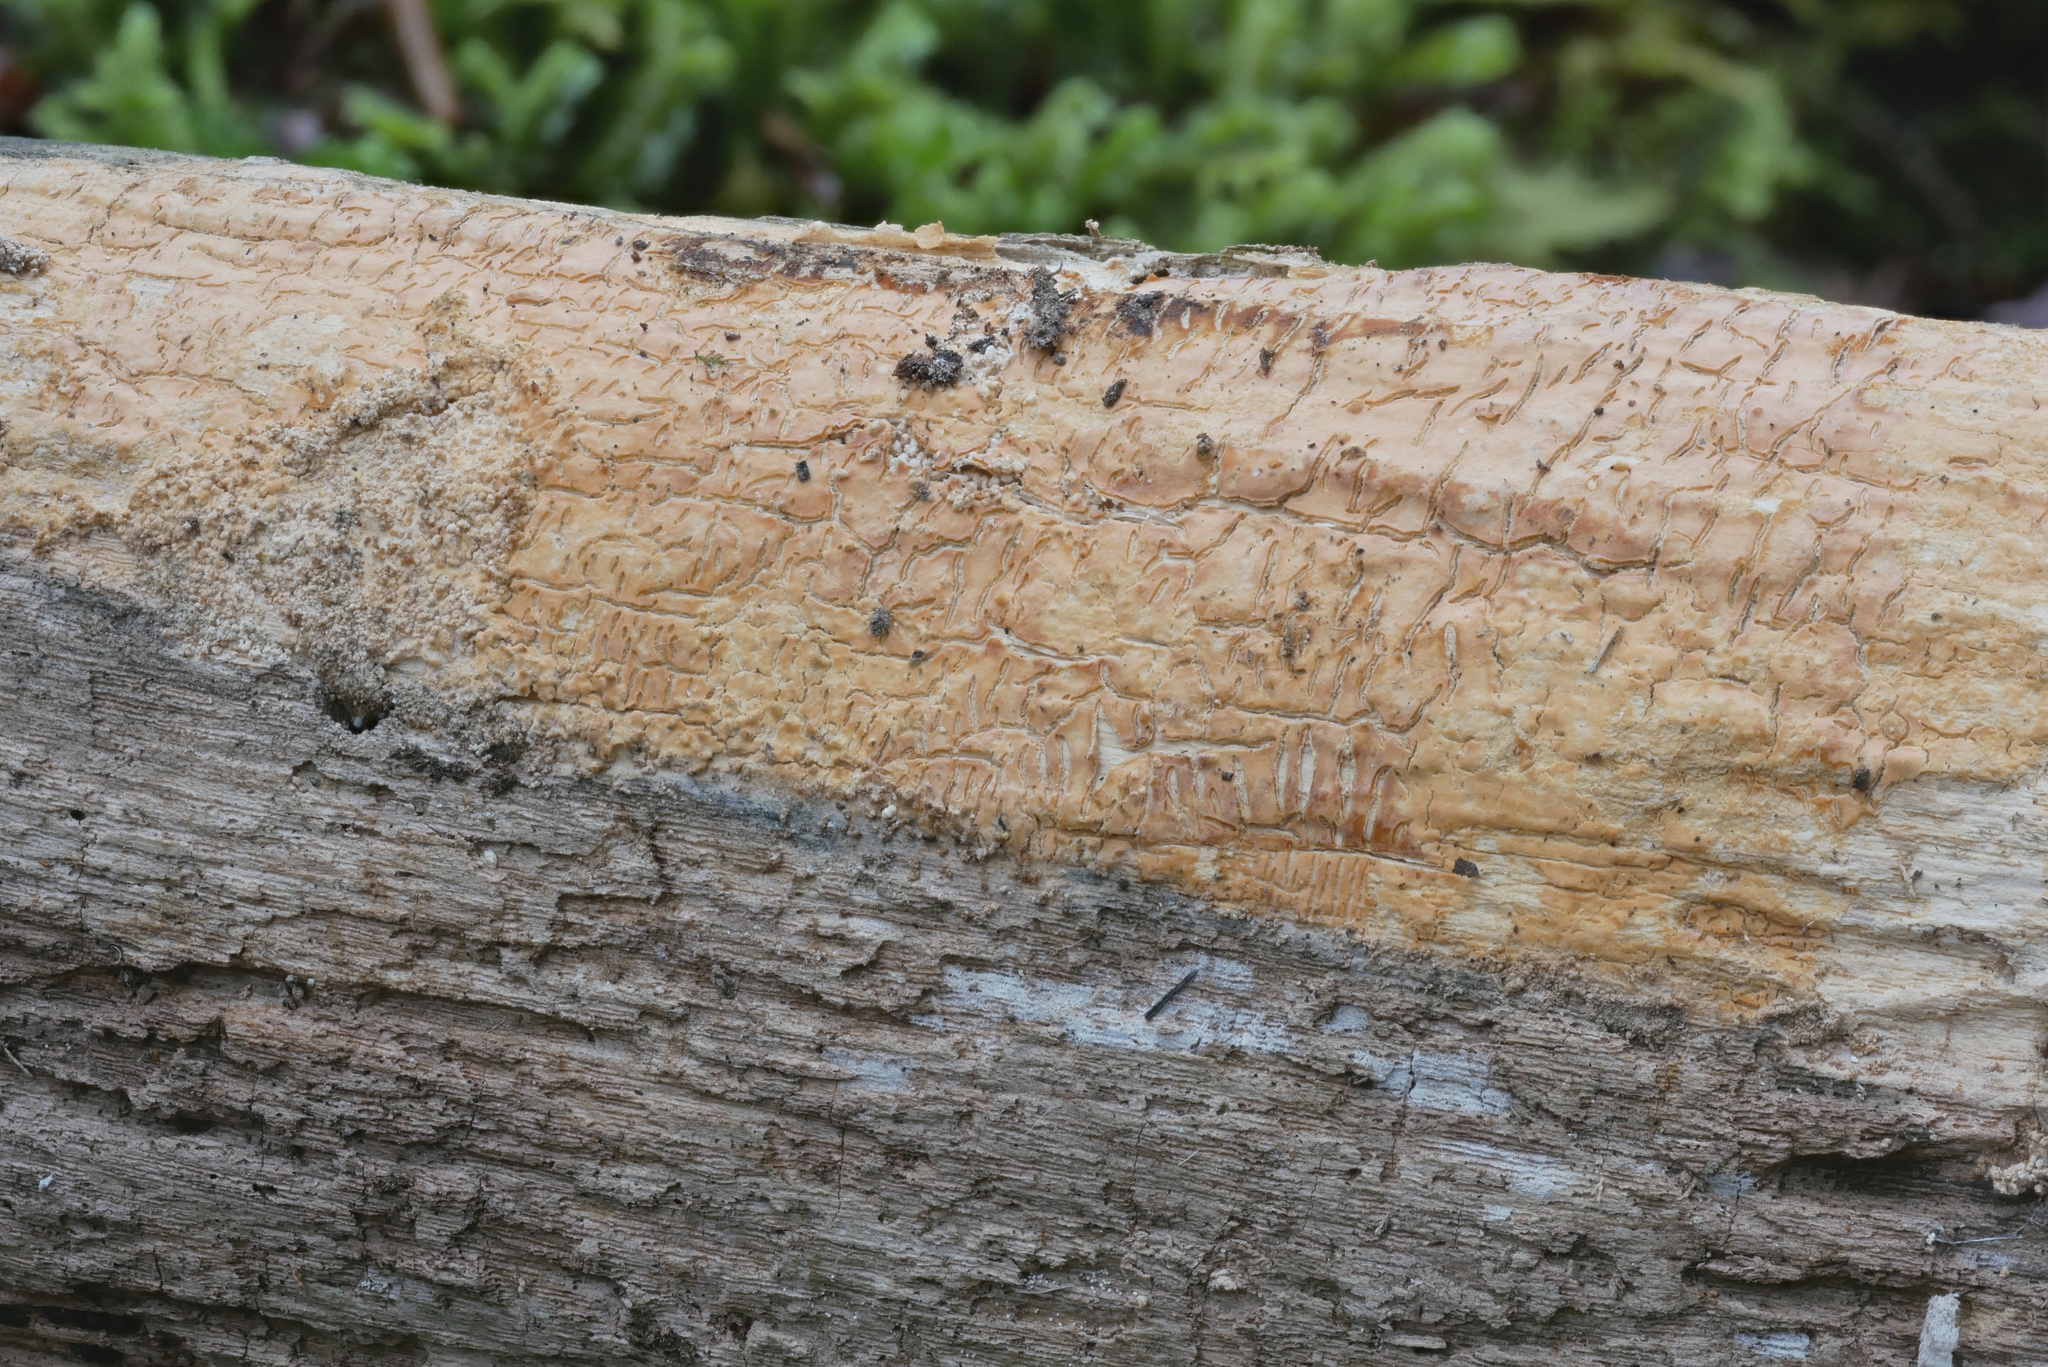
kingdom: Fungi
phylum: Basidiomycota
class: Agaricomycetes
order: Russulales
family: Peniophoraceae
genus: Dichostereum
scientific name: Dichostereum effuscatum
